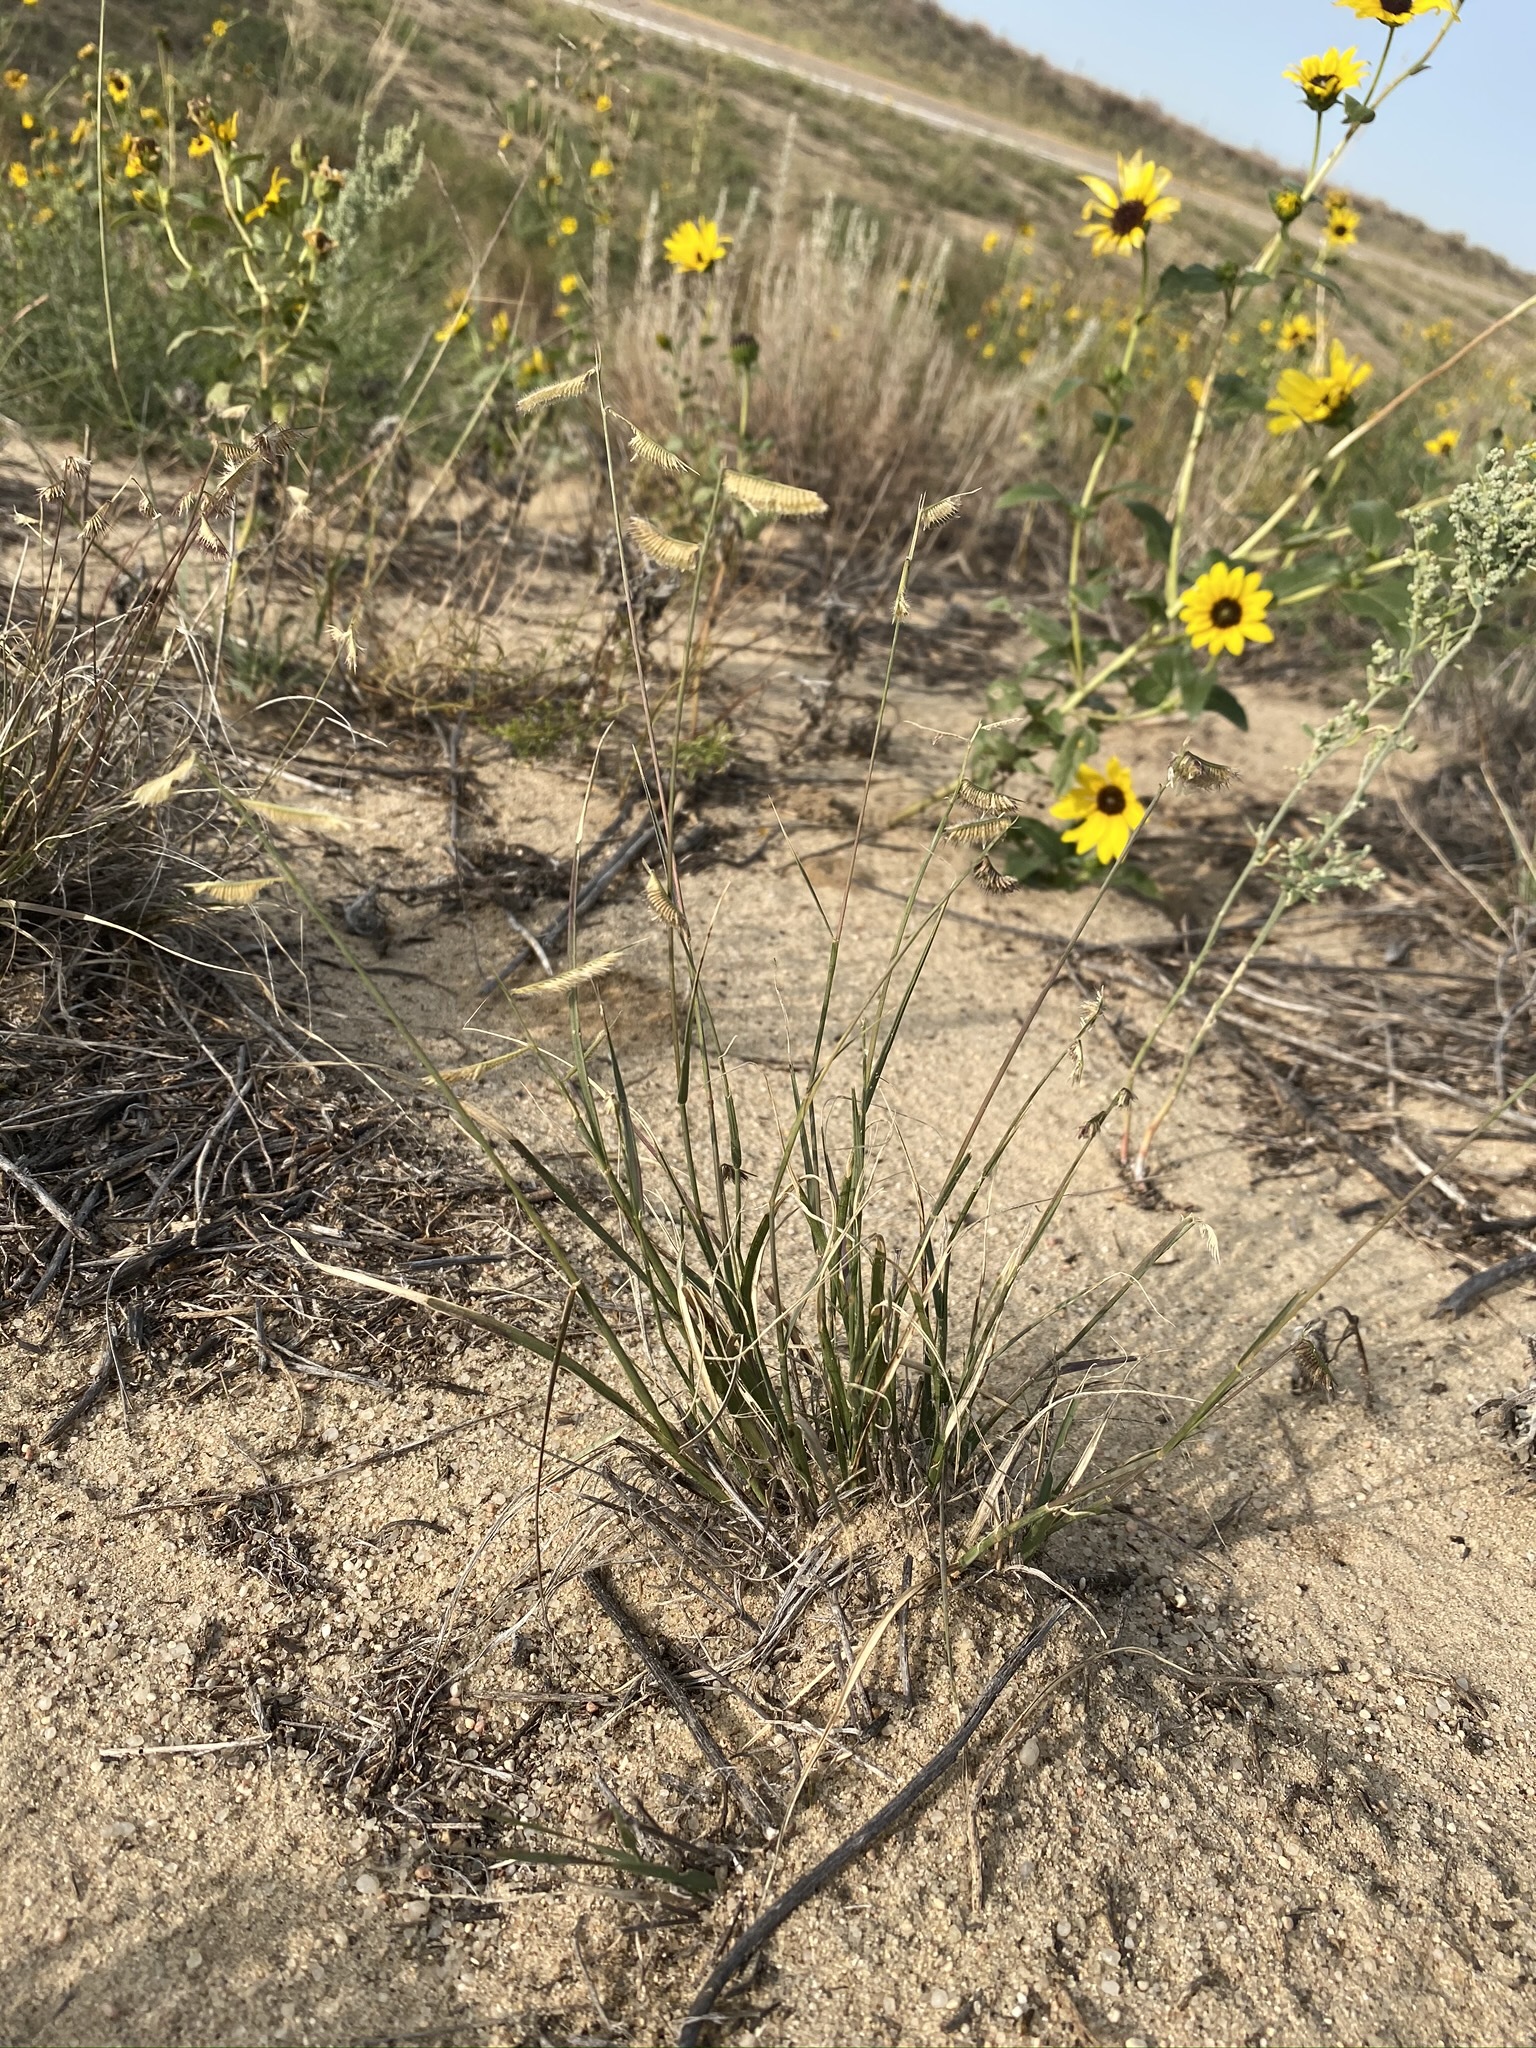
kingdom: Plantae
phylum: Tracheophyta
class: Liliopsida
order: Poales
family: Poaceae
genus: Bouteloua
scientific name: Bouteloua hirsuta
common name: Hairy grama
